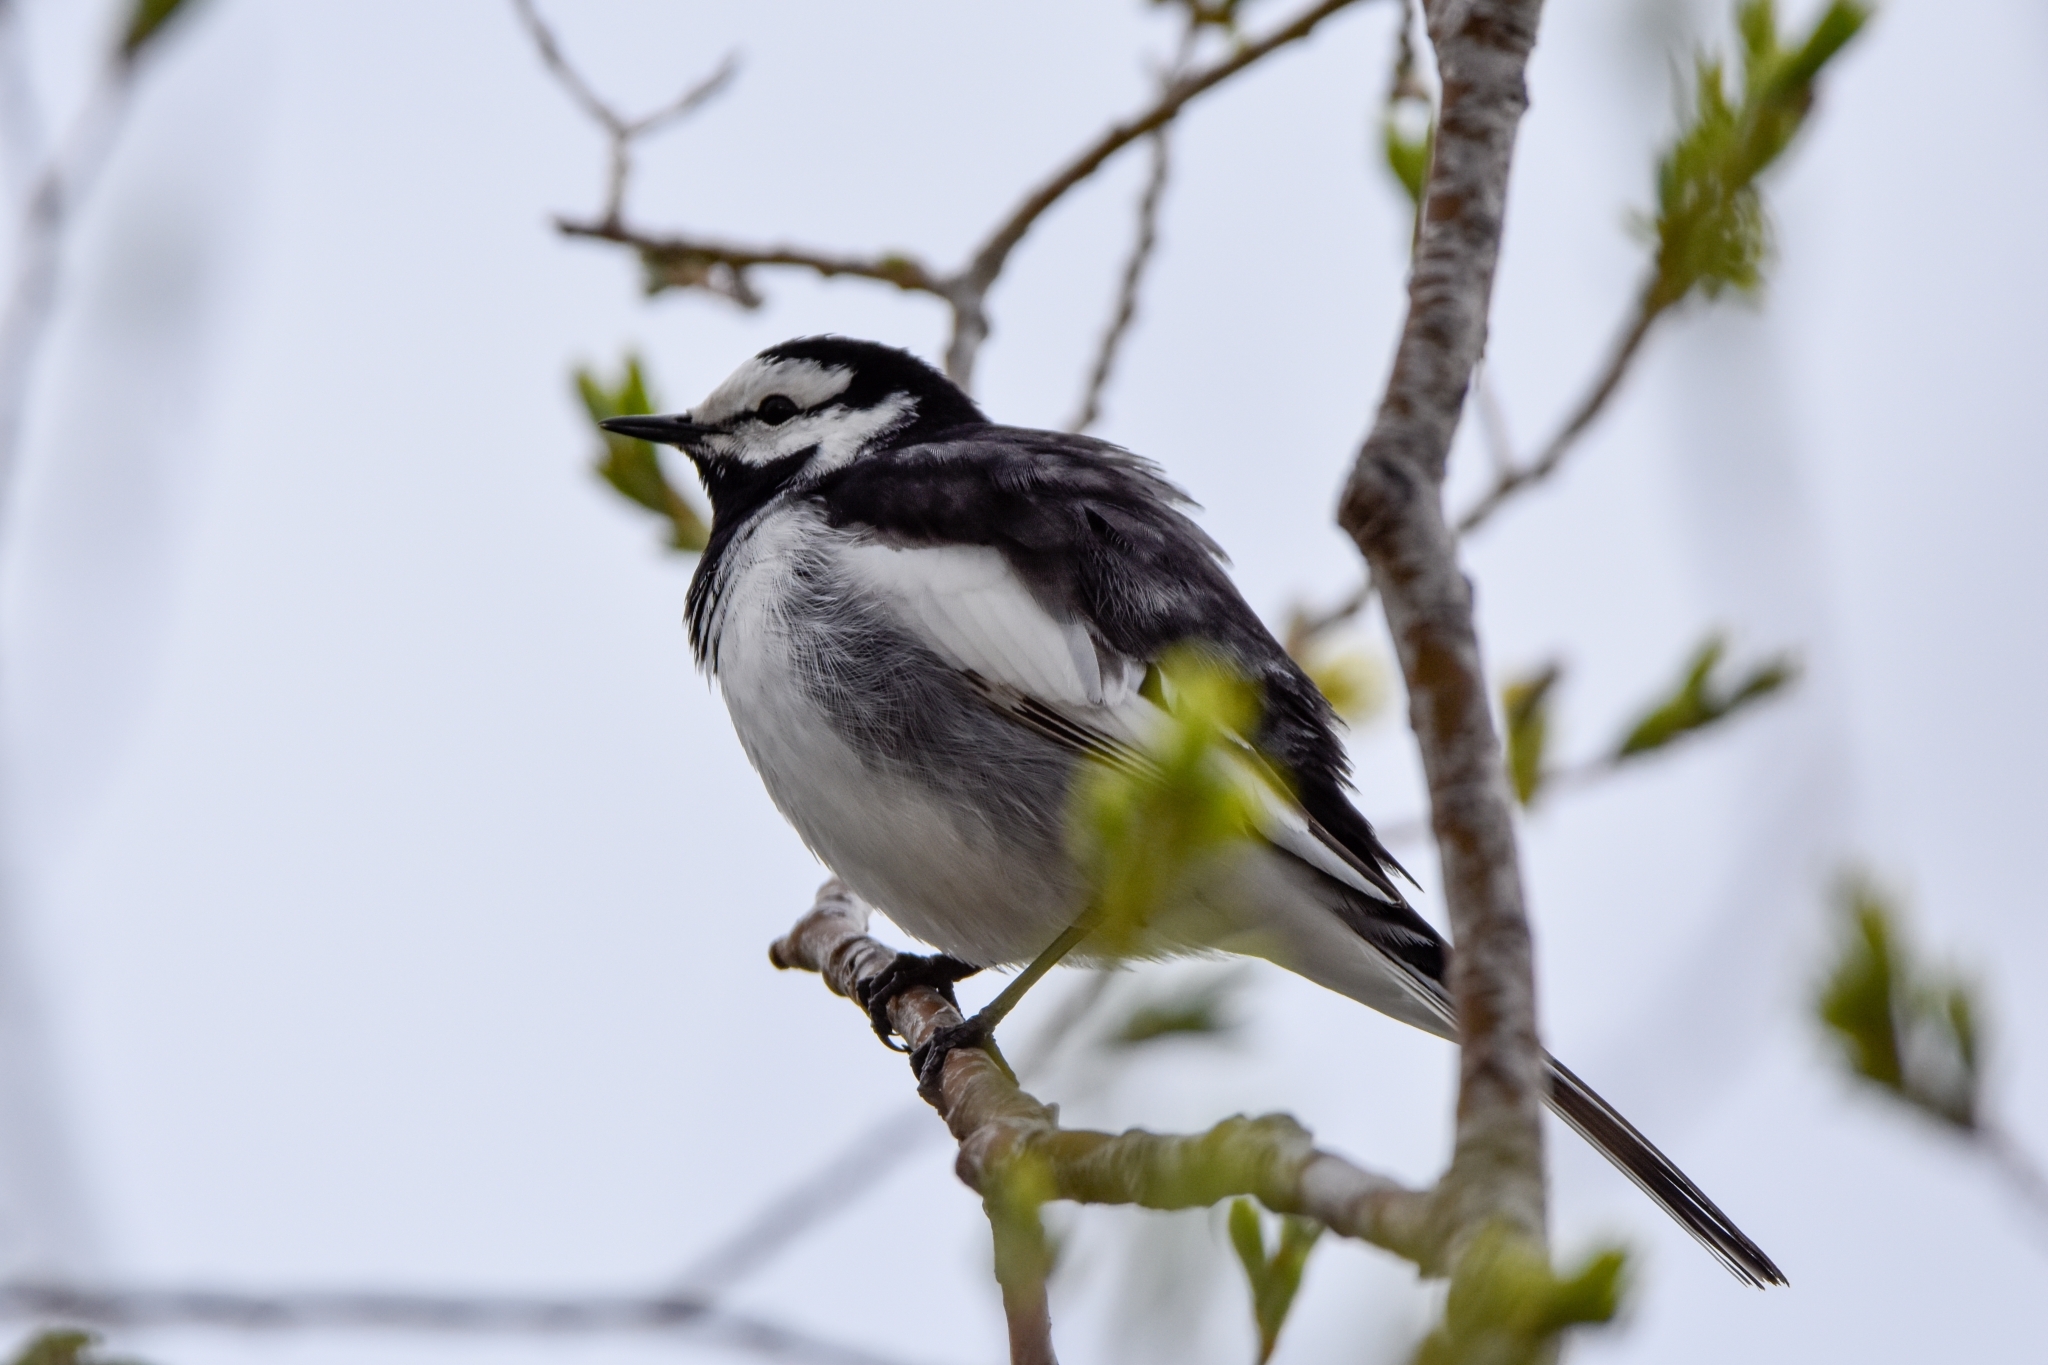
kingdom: Animalia
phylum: Chordata
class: Aves
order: Passeriformes
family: Motacillidae
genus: Motacilla
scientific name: Motacilla alba
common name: White wagtail
